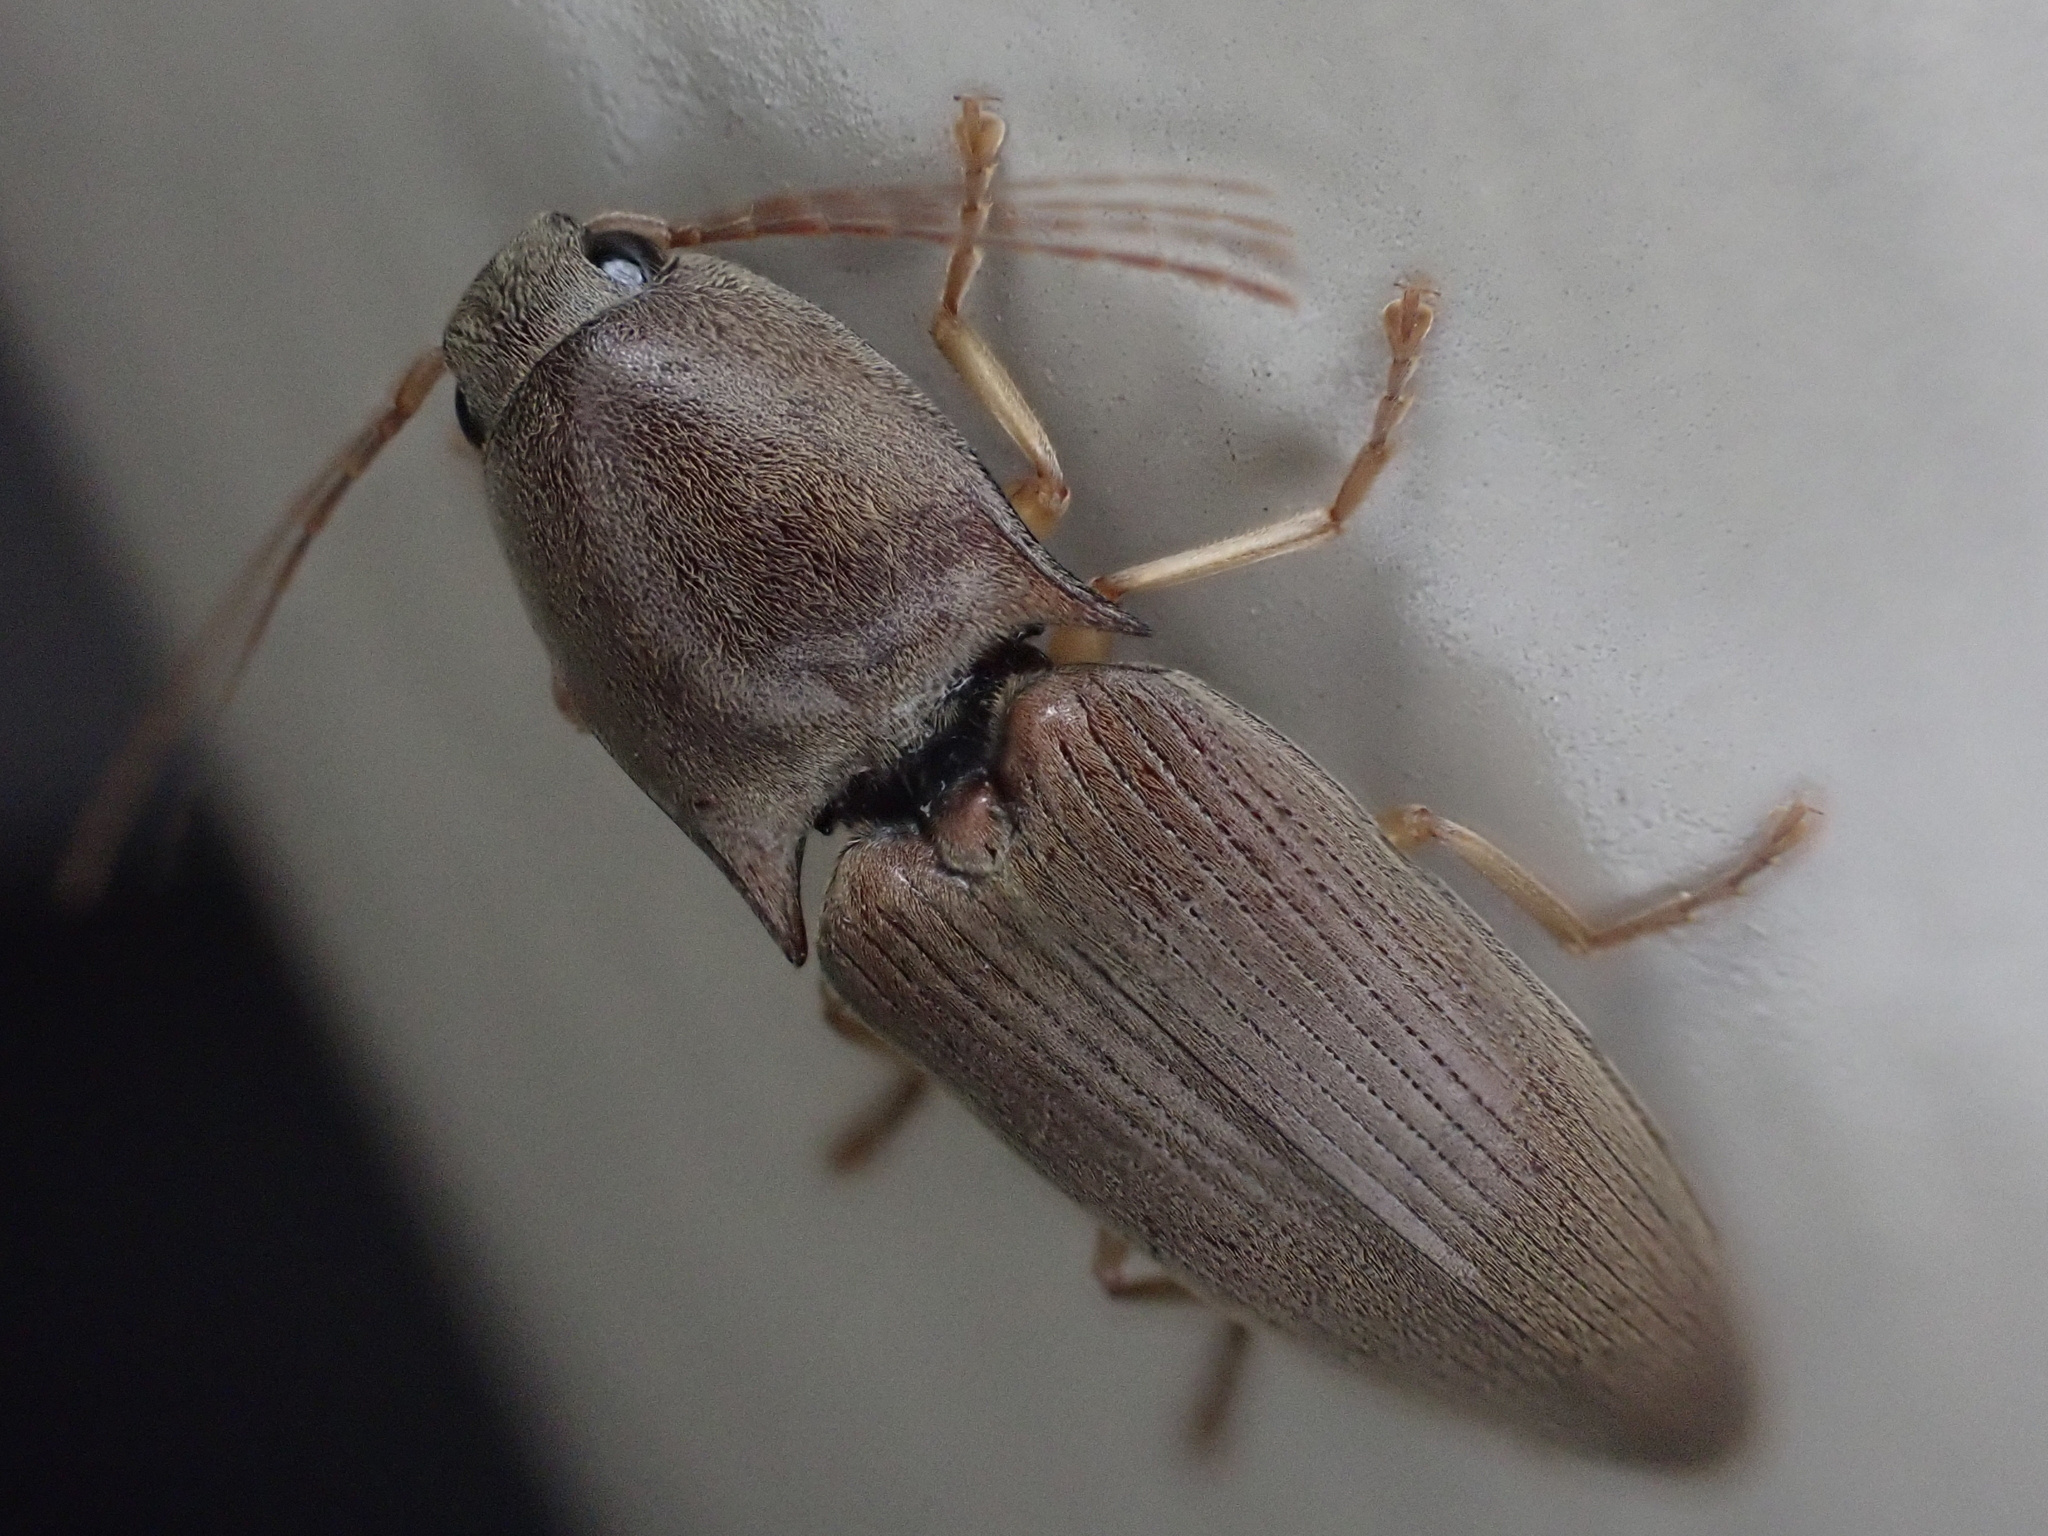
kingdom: Animalia
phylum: Arthropoda
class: Insecta
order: Coleoptera
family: Elateridae
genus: Monocrepidius
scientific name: Monocrepidius lividus
